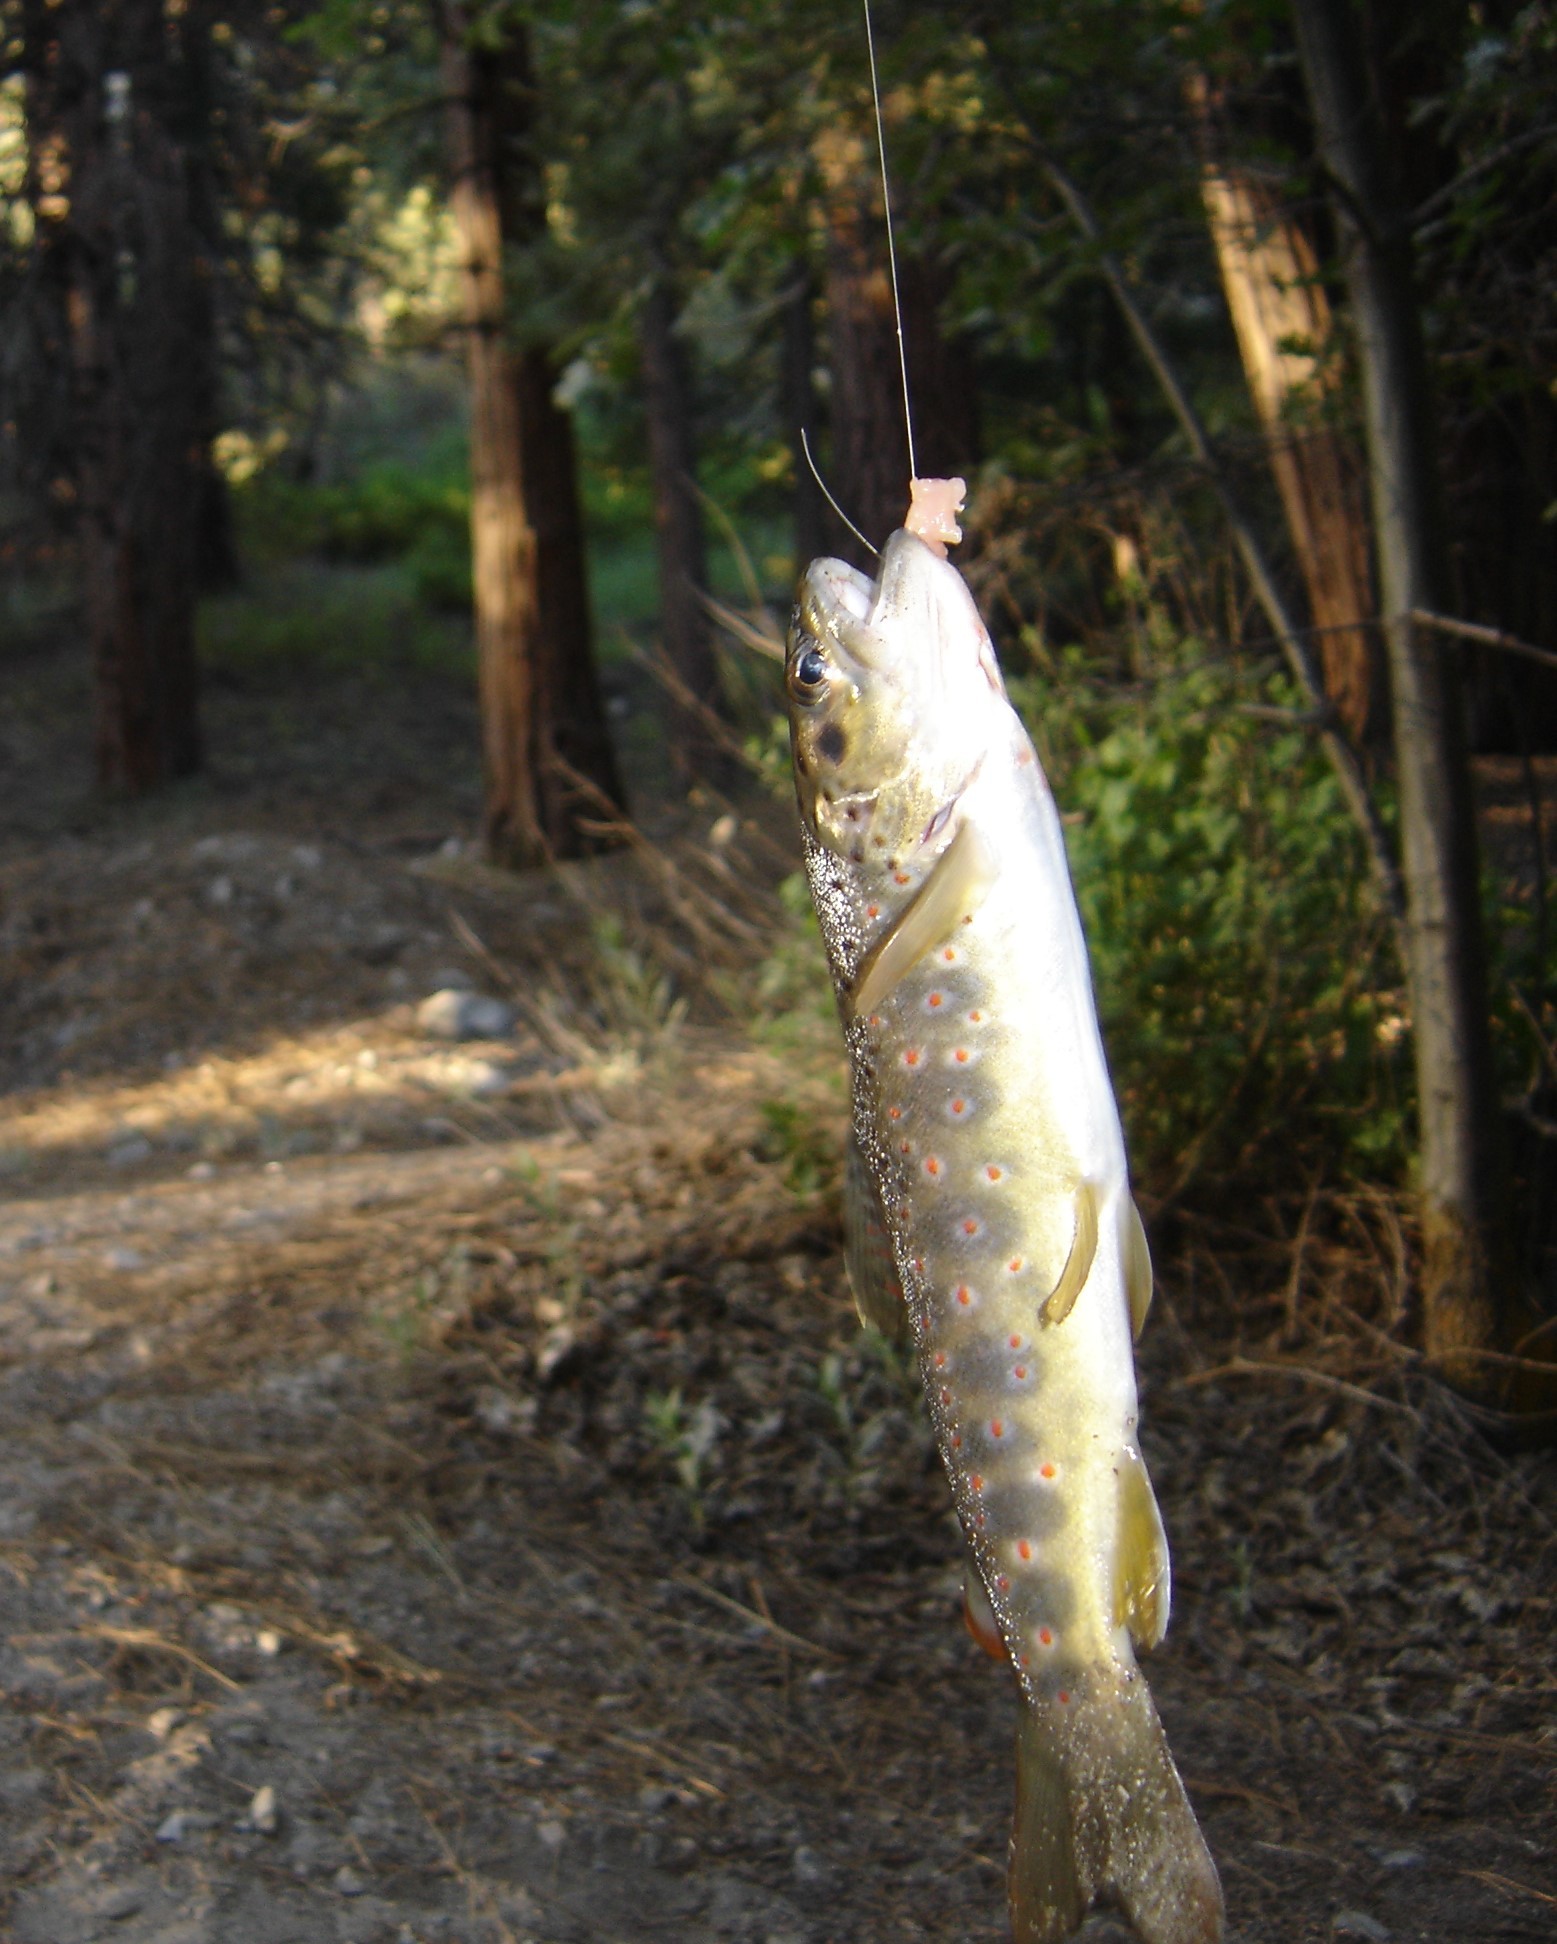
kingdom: Animalia
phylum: Chordata
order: Salmoniformes
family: Salmonidae
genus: Salmo
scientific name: Salmo trutta
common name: Brown trout
